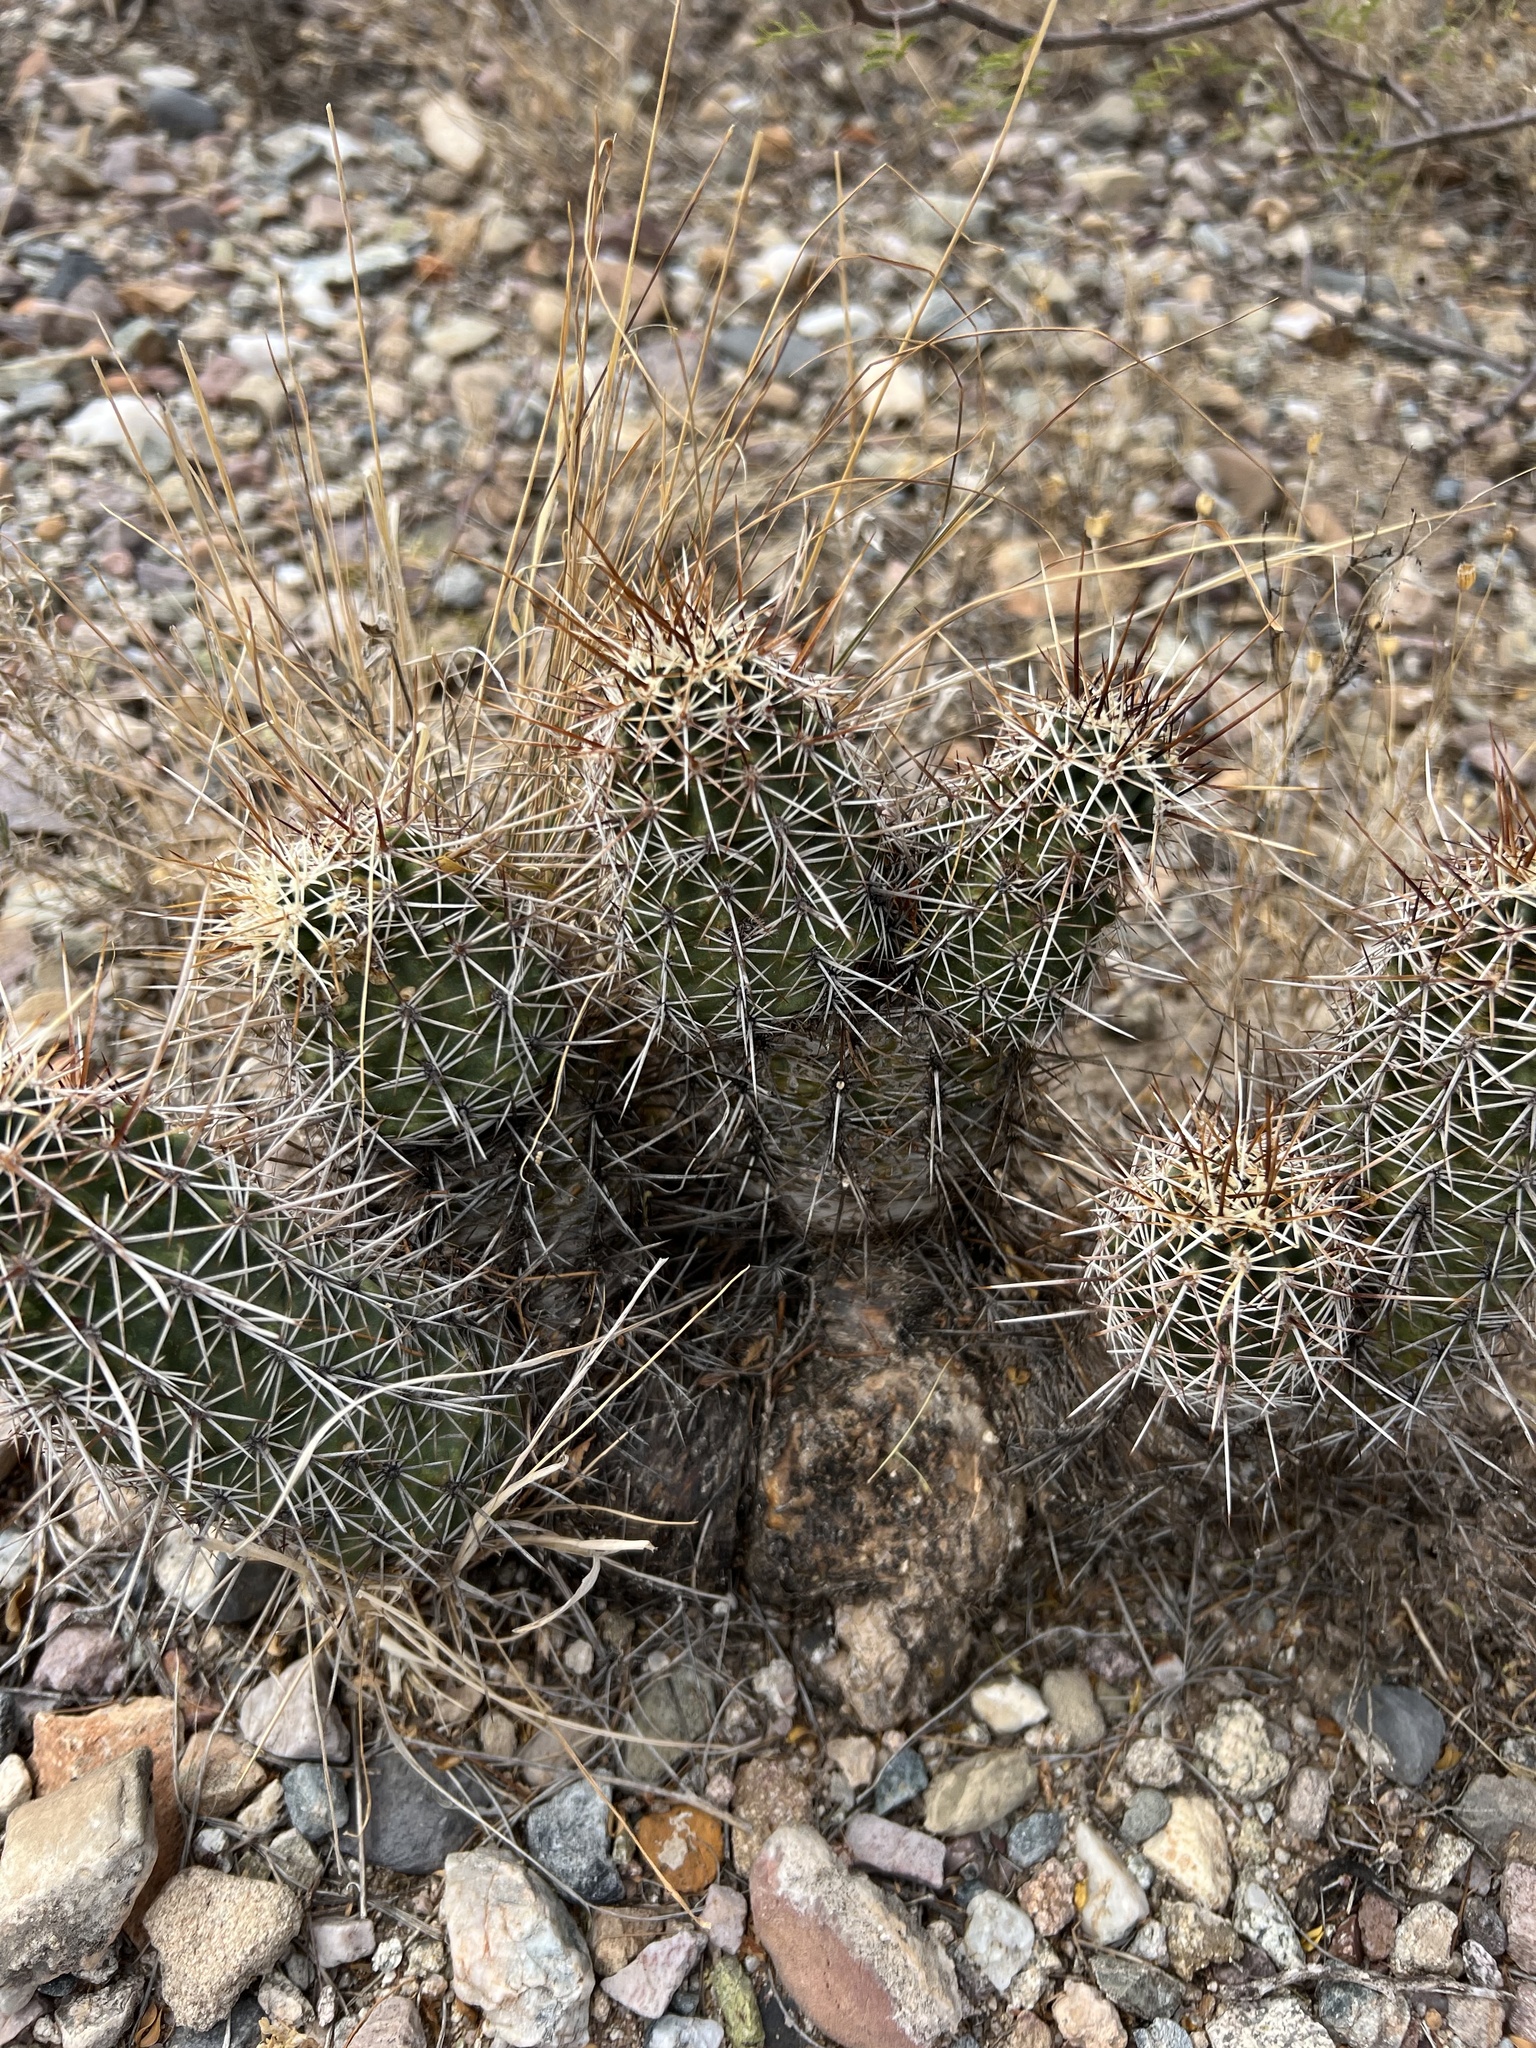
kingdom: Plantae
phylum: Tracheophyta
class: Magnoliopsida
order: Caryophyllales
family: Cactaceae
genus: Echinocereus
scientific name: Echinocereus fasciculatus
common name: Bundle hedgehog
